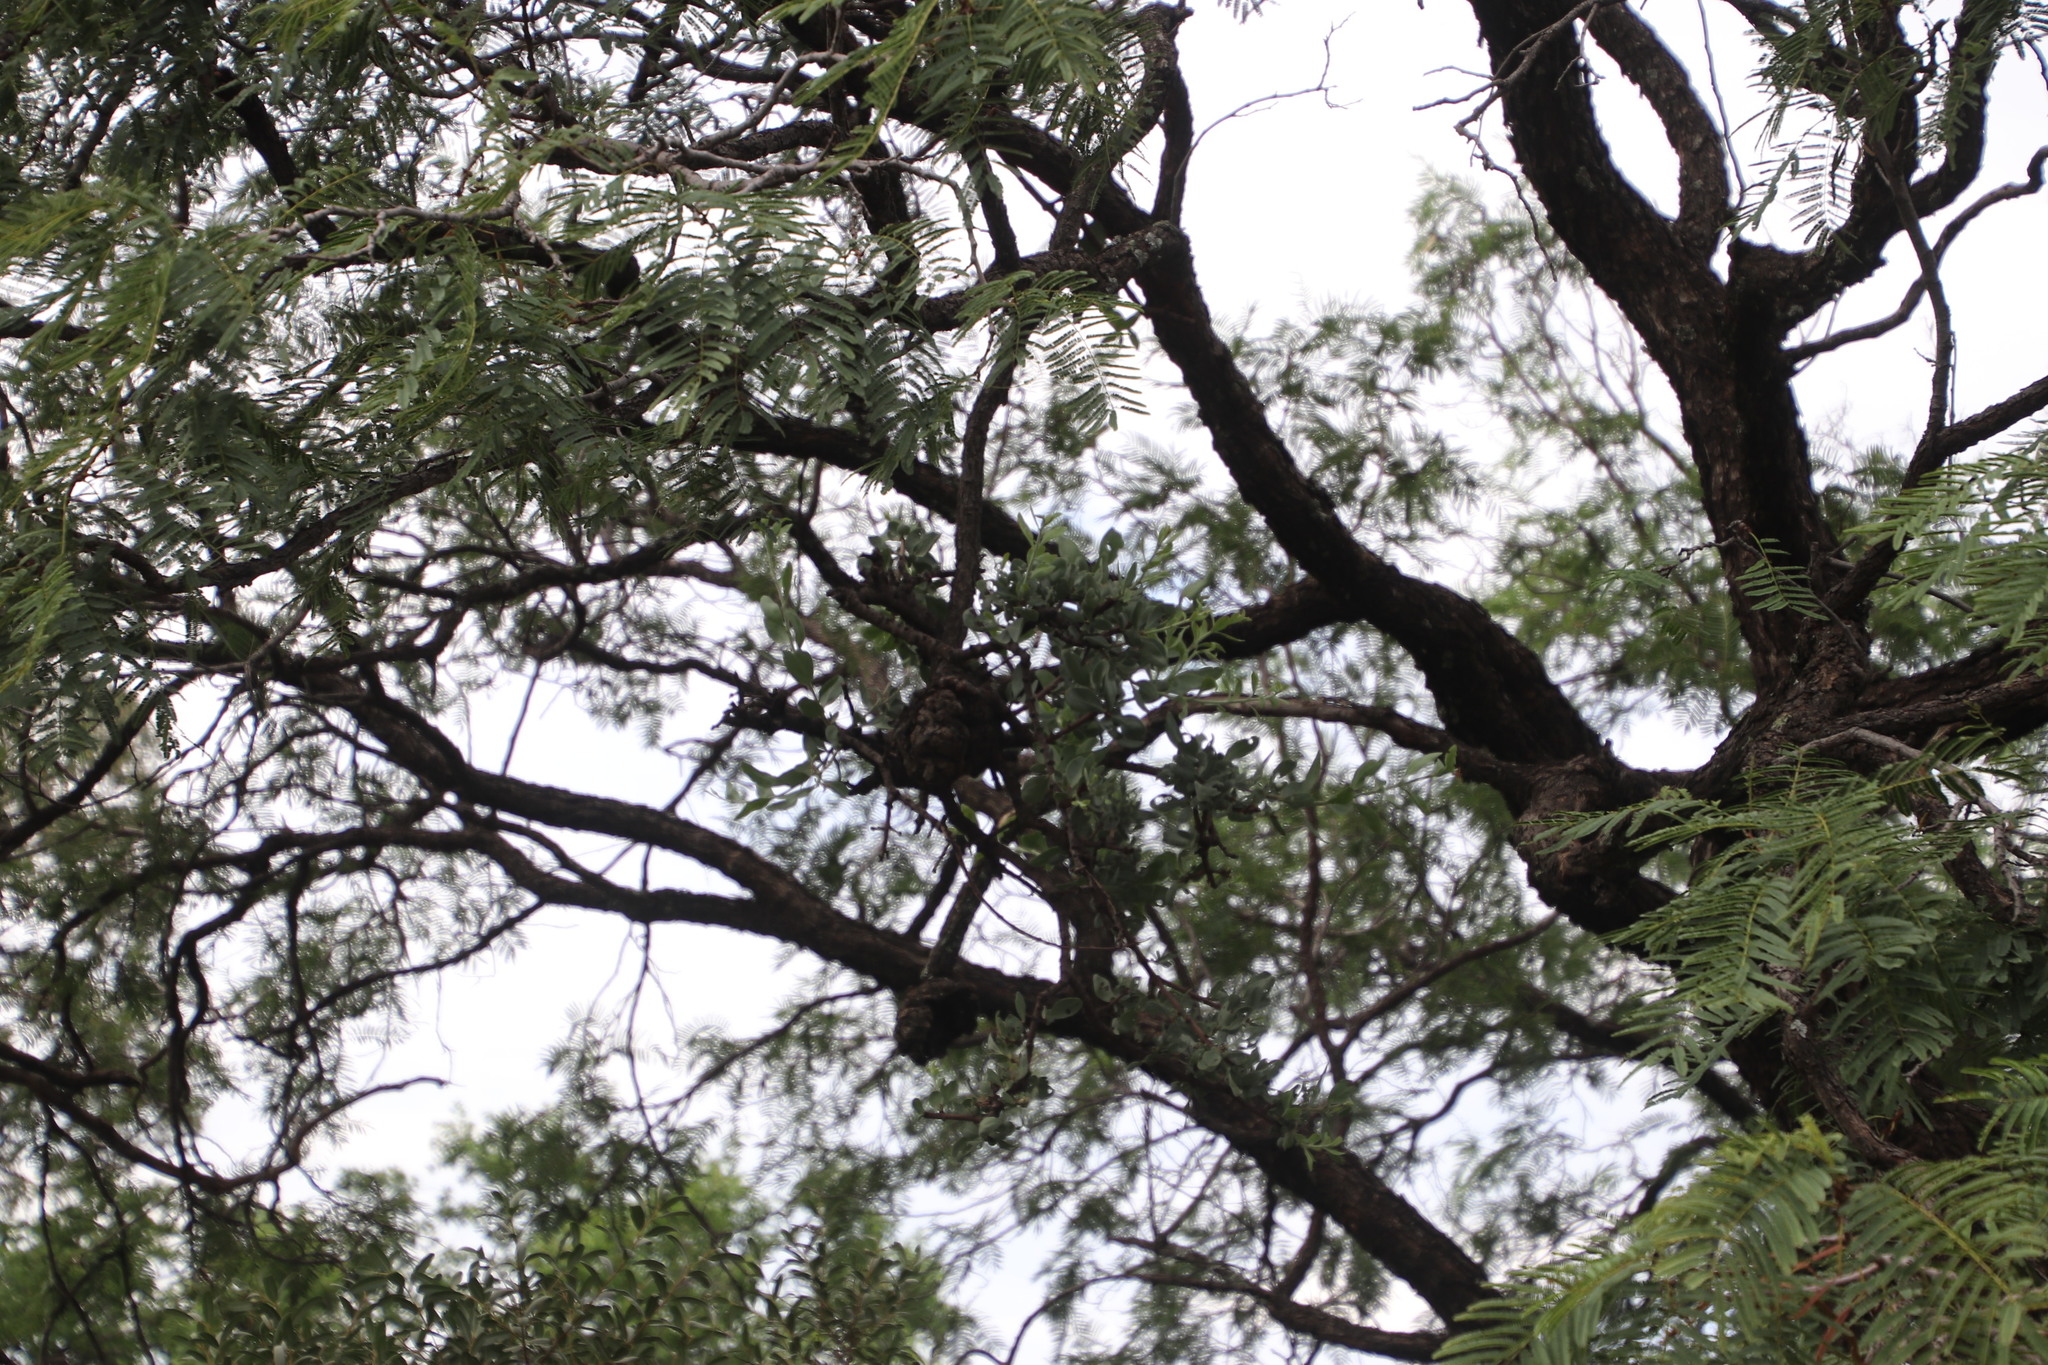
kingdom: Plantae
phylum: Tracheophyta
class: Magnoliopsida
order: Fabales
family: Fabaceae
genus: Senegalia
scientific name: Senegalia caffra
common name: Cat thorn
